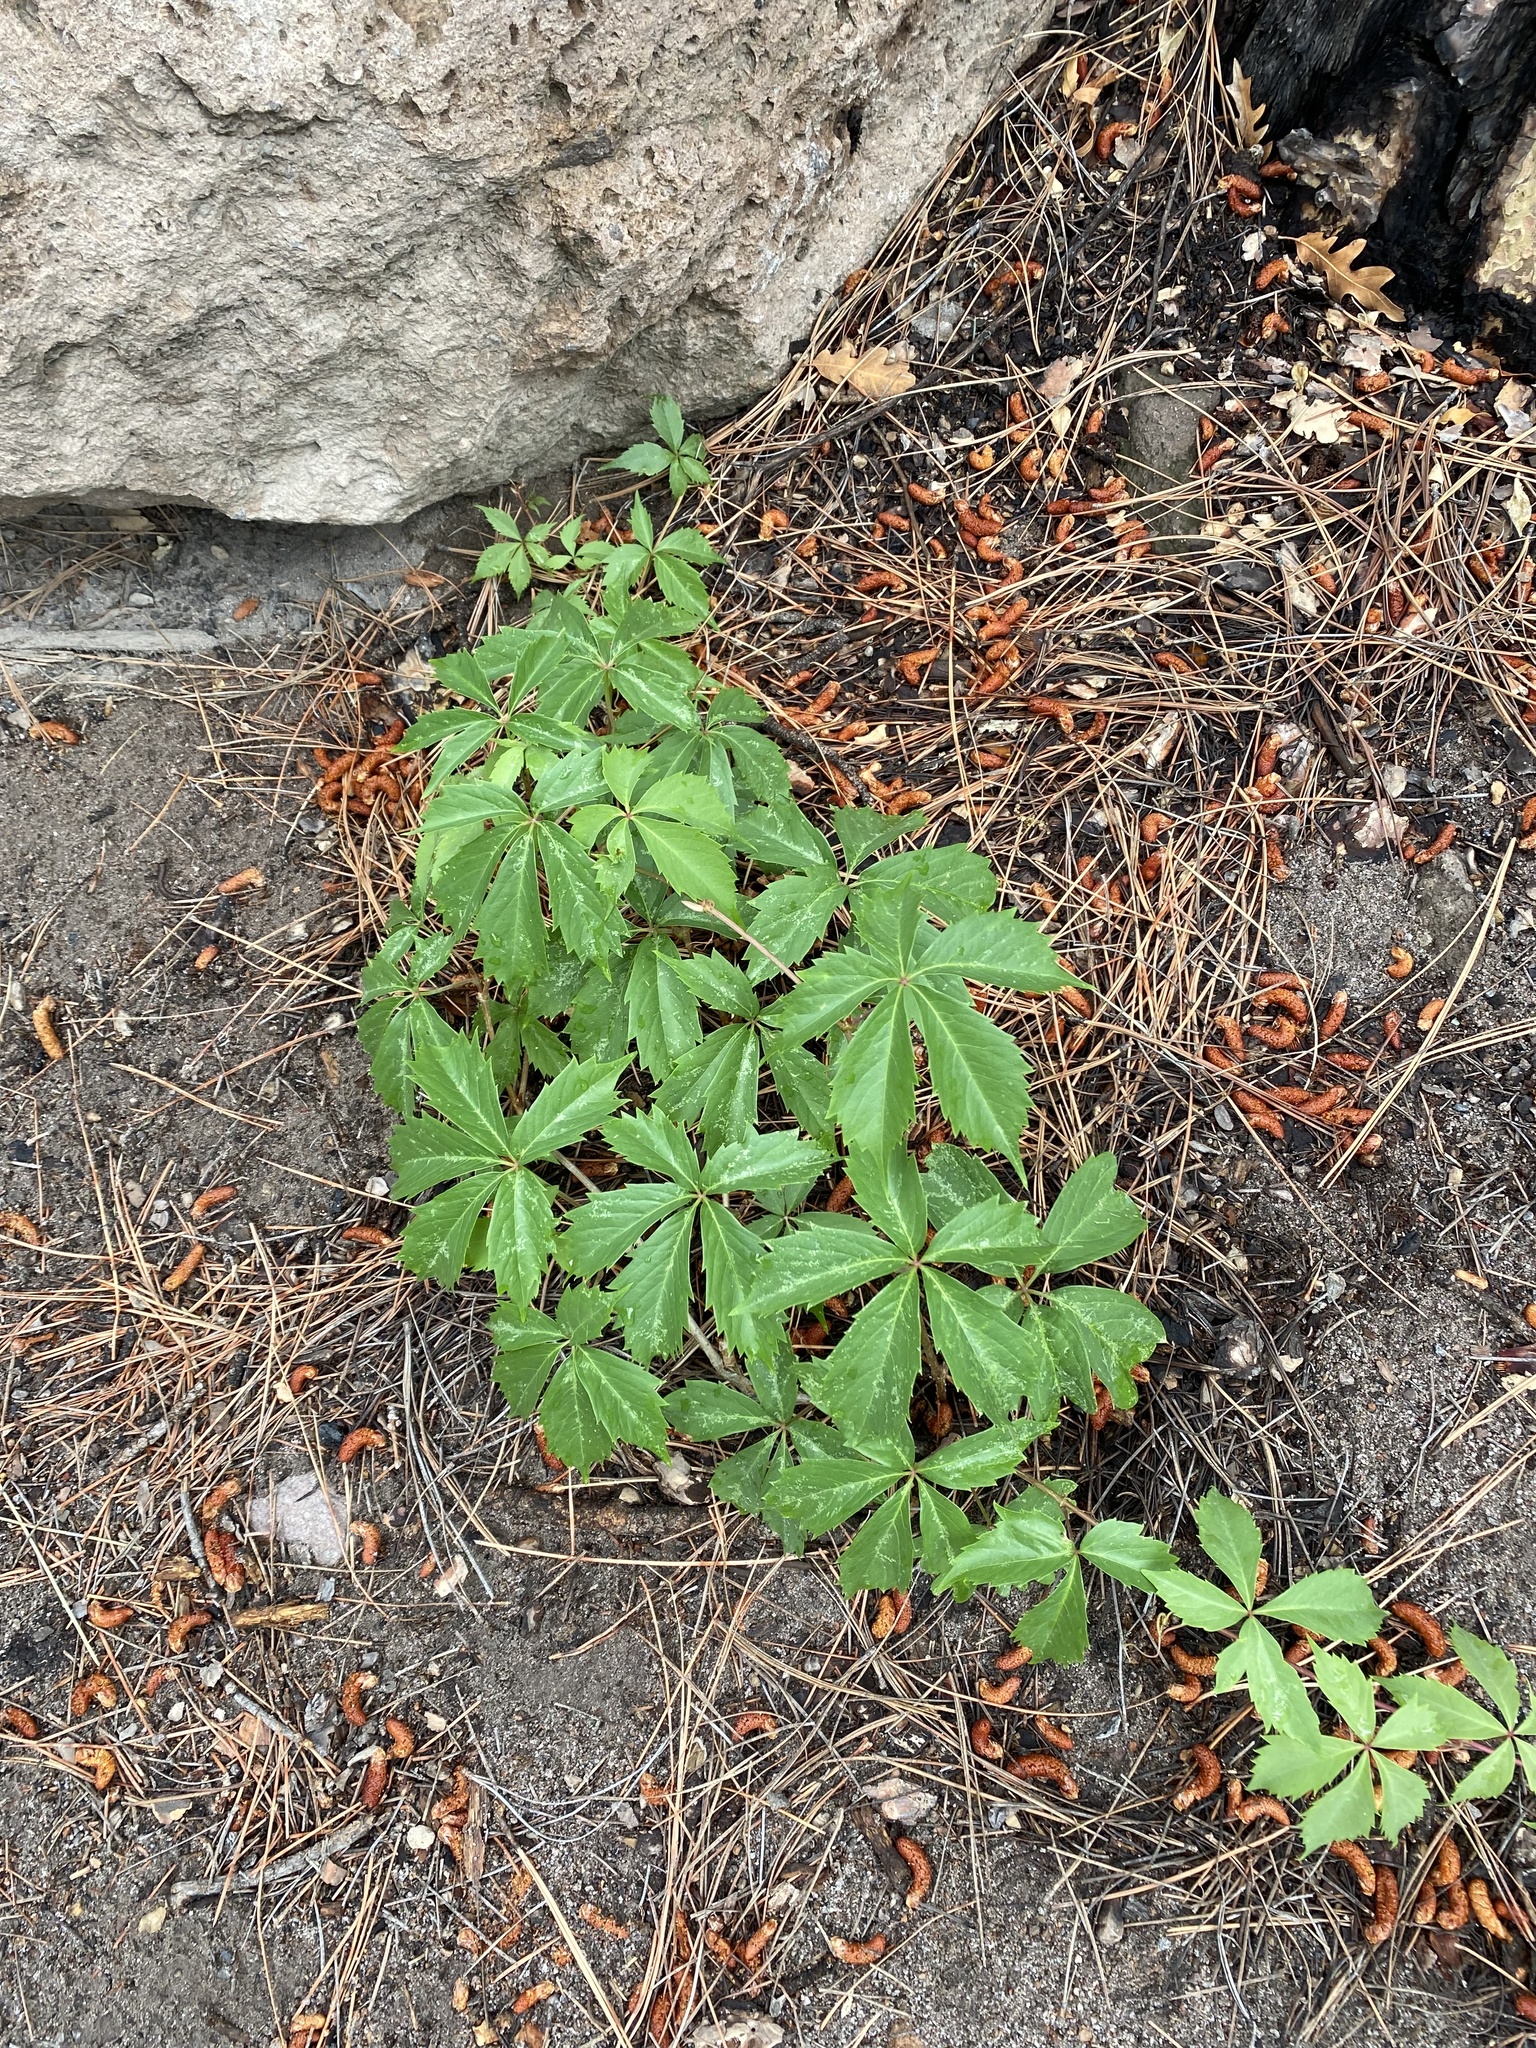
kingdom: Plantae
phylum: Tracheophyta
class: Magnoliopsida
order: Vitales
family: Vitaceae
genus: Parthenocissus
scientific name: Parthenocissus quinquefolia
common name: Virginia-creeper
